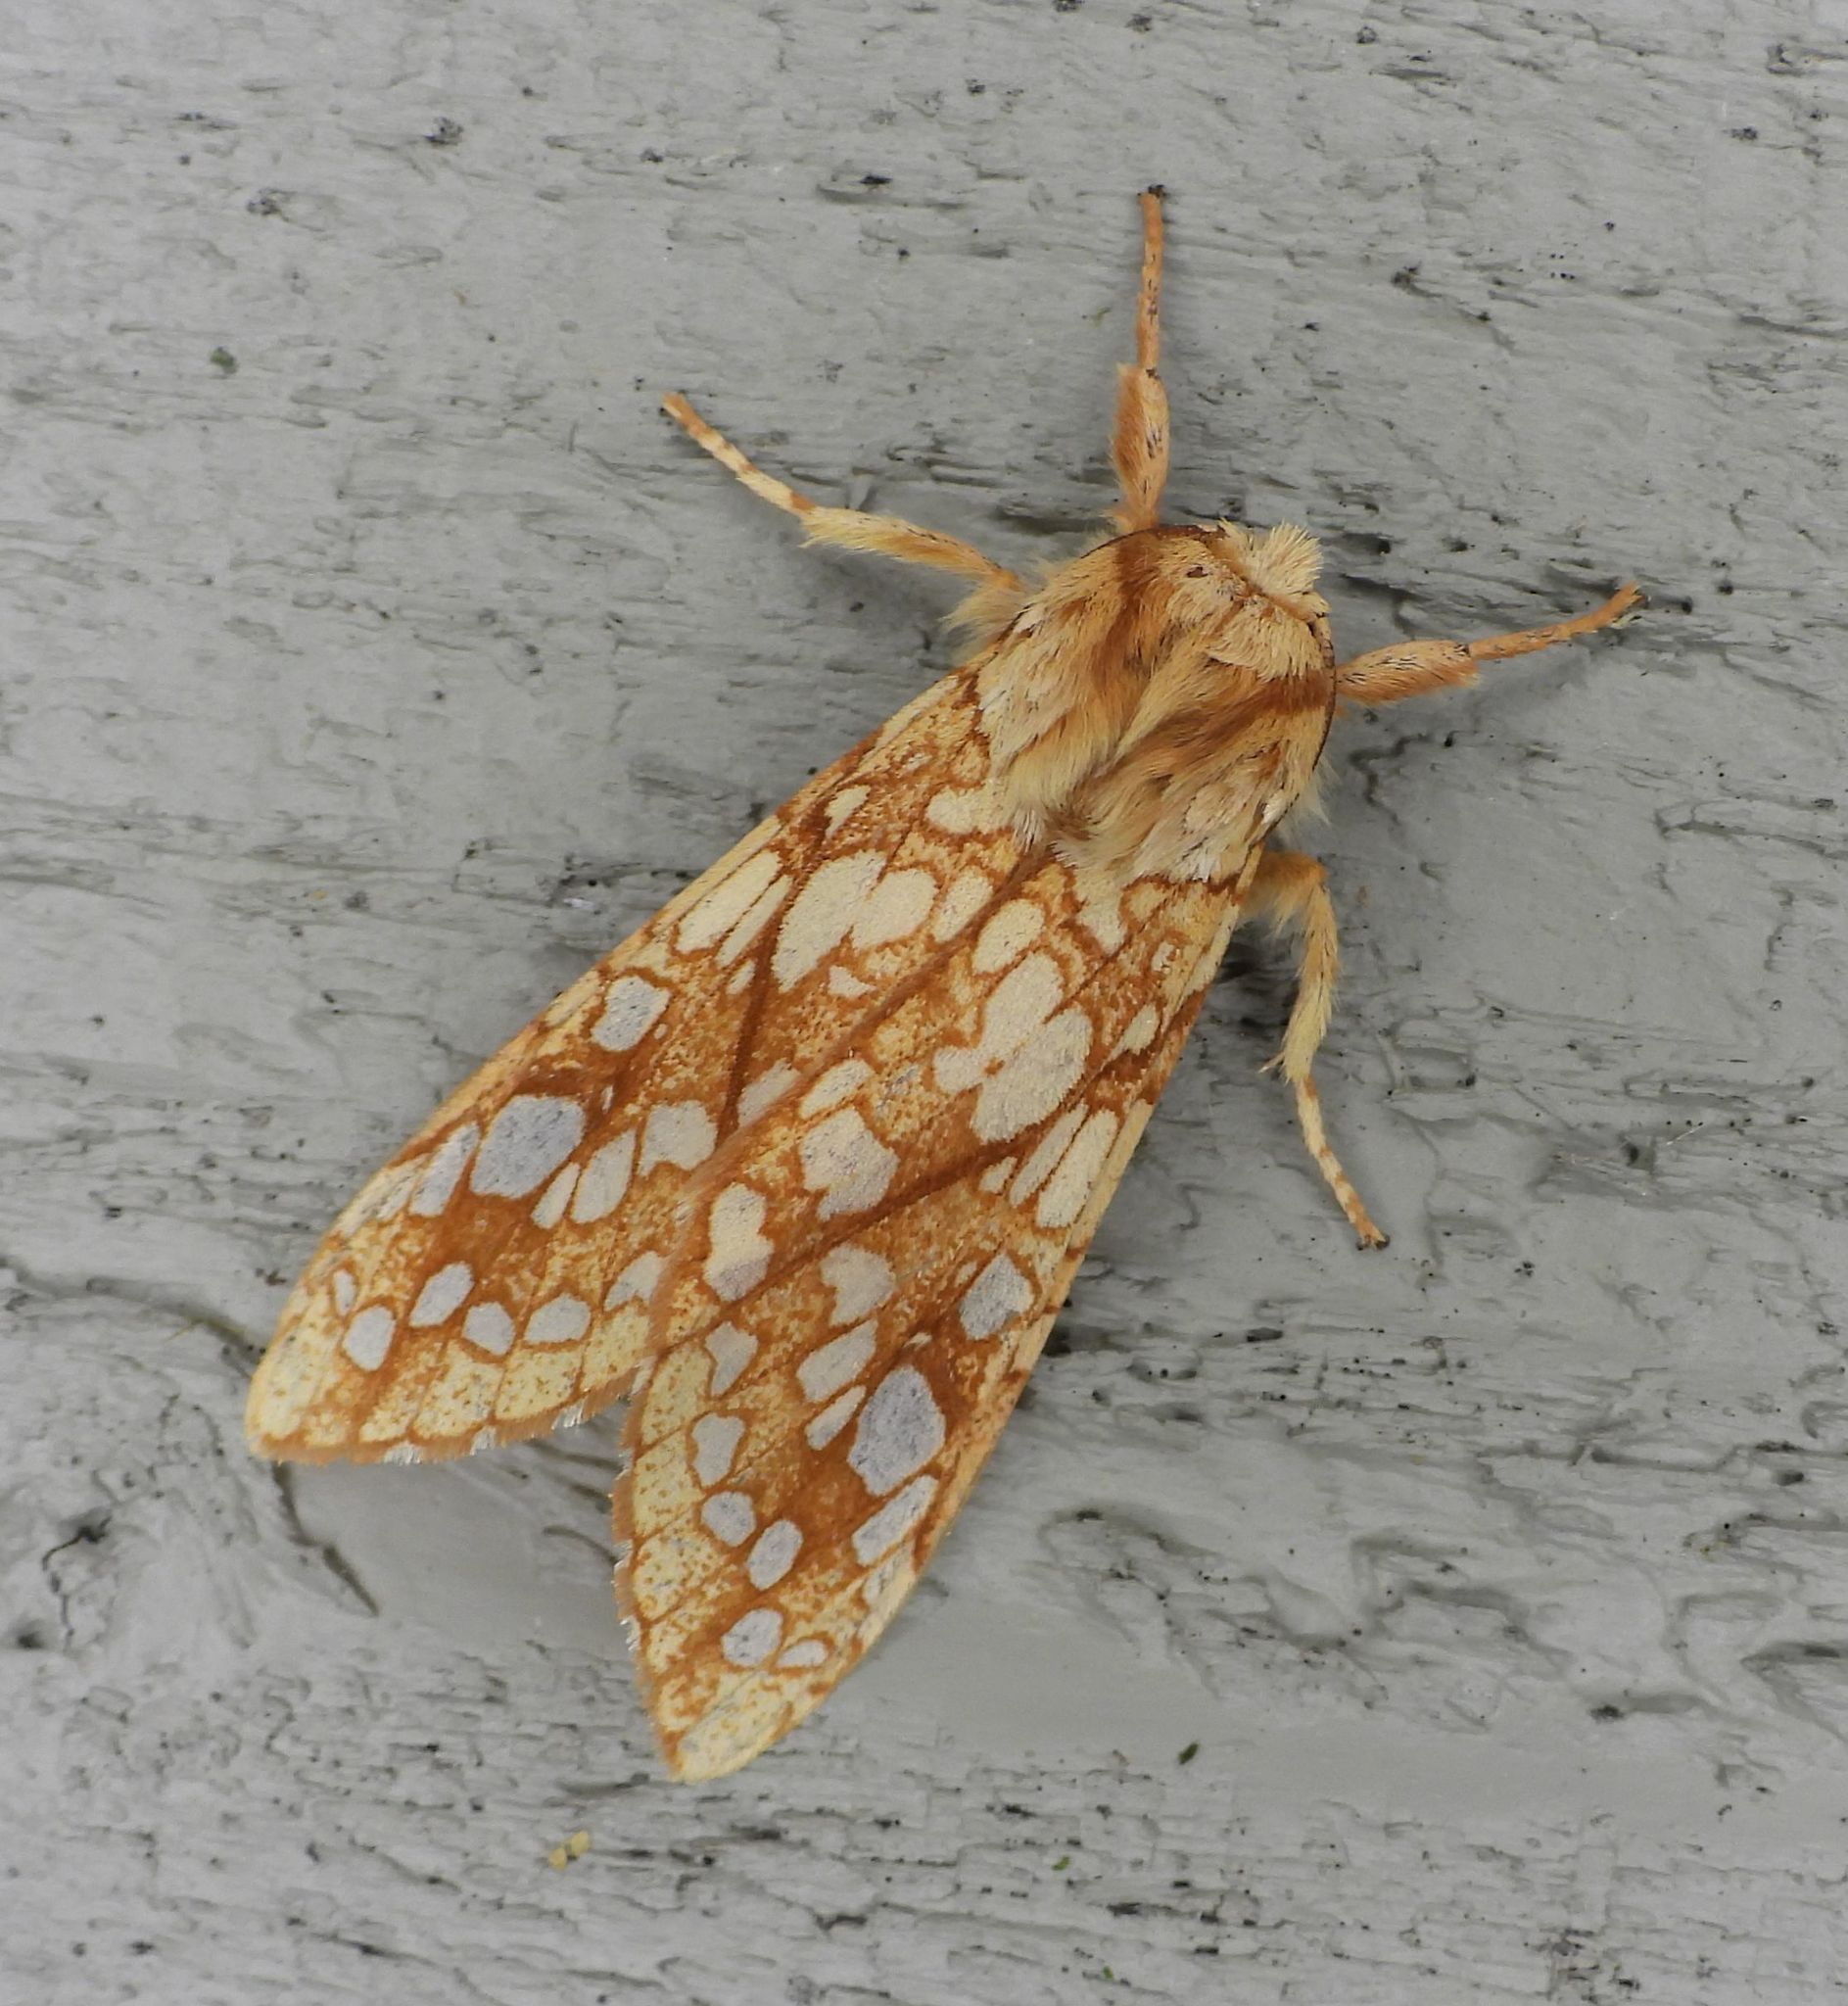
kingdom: Animalia
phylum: Arthropoda
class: Insecta
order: Lepidoptera
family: Erebidae
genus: Lophocampa
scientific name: Lophocampa caryae
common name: Hickory tussock moth
